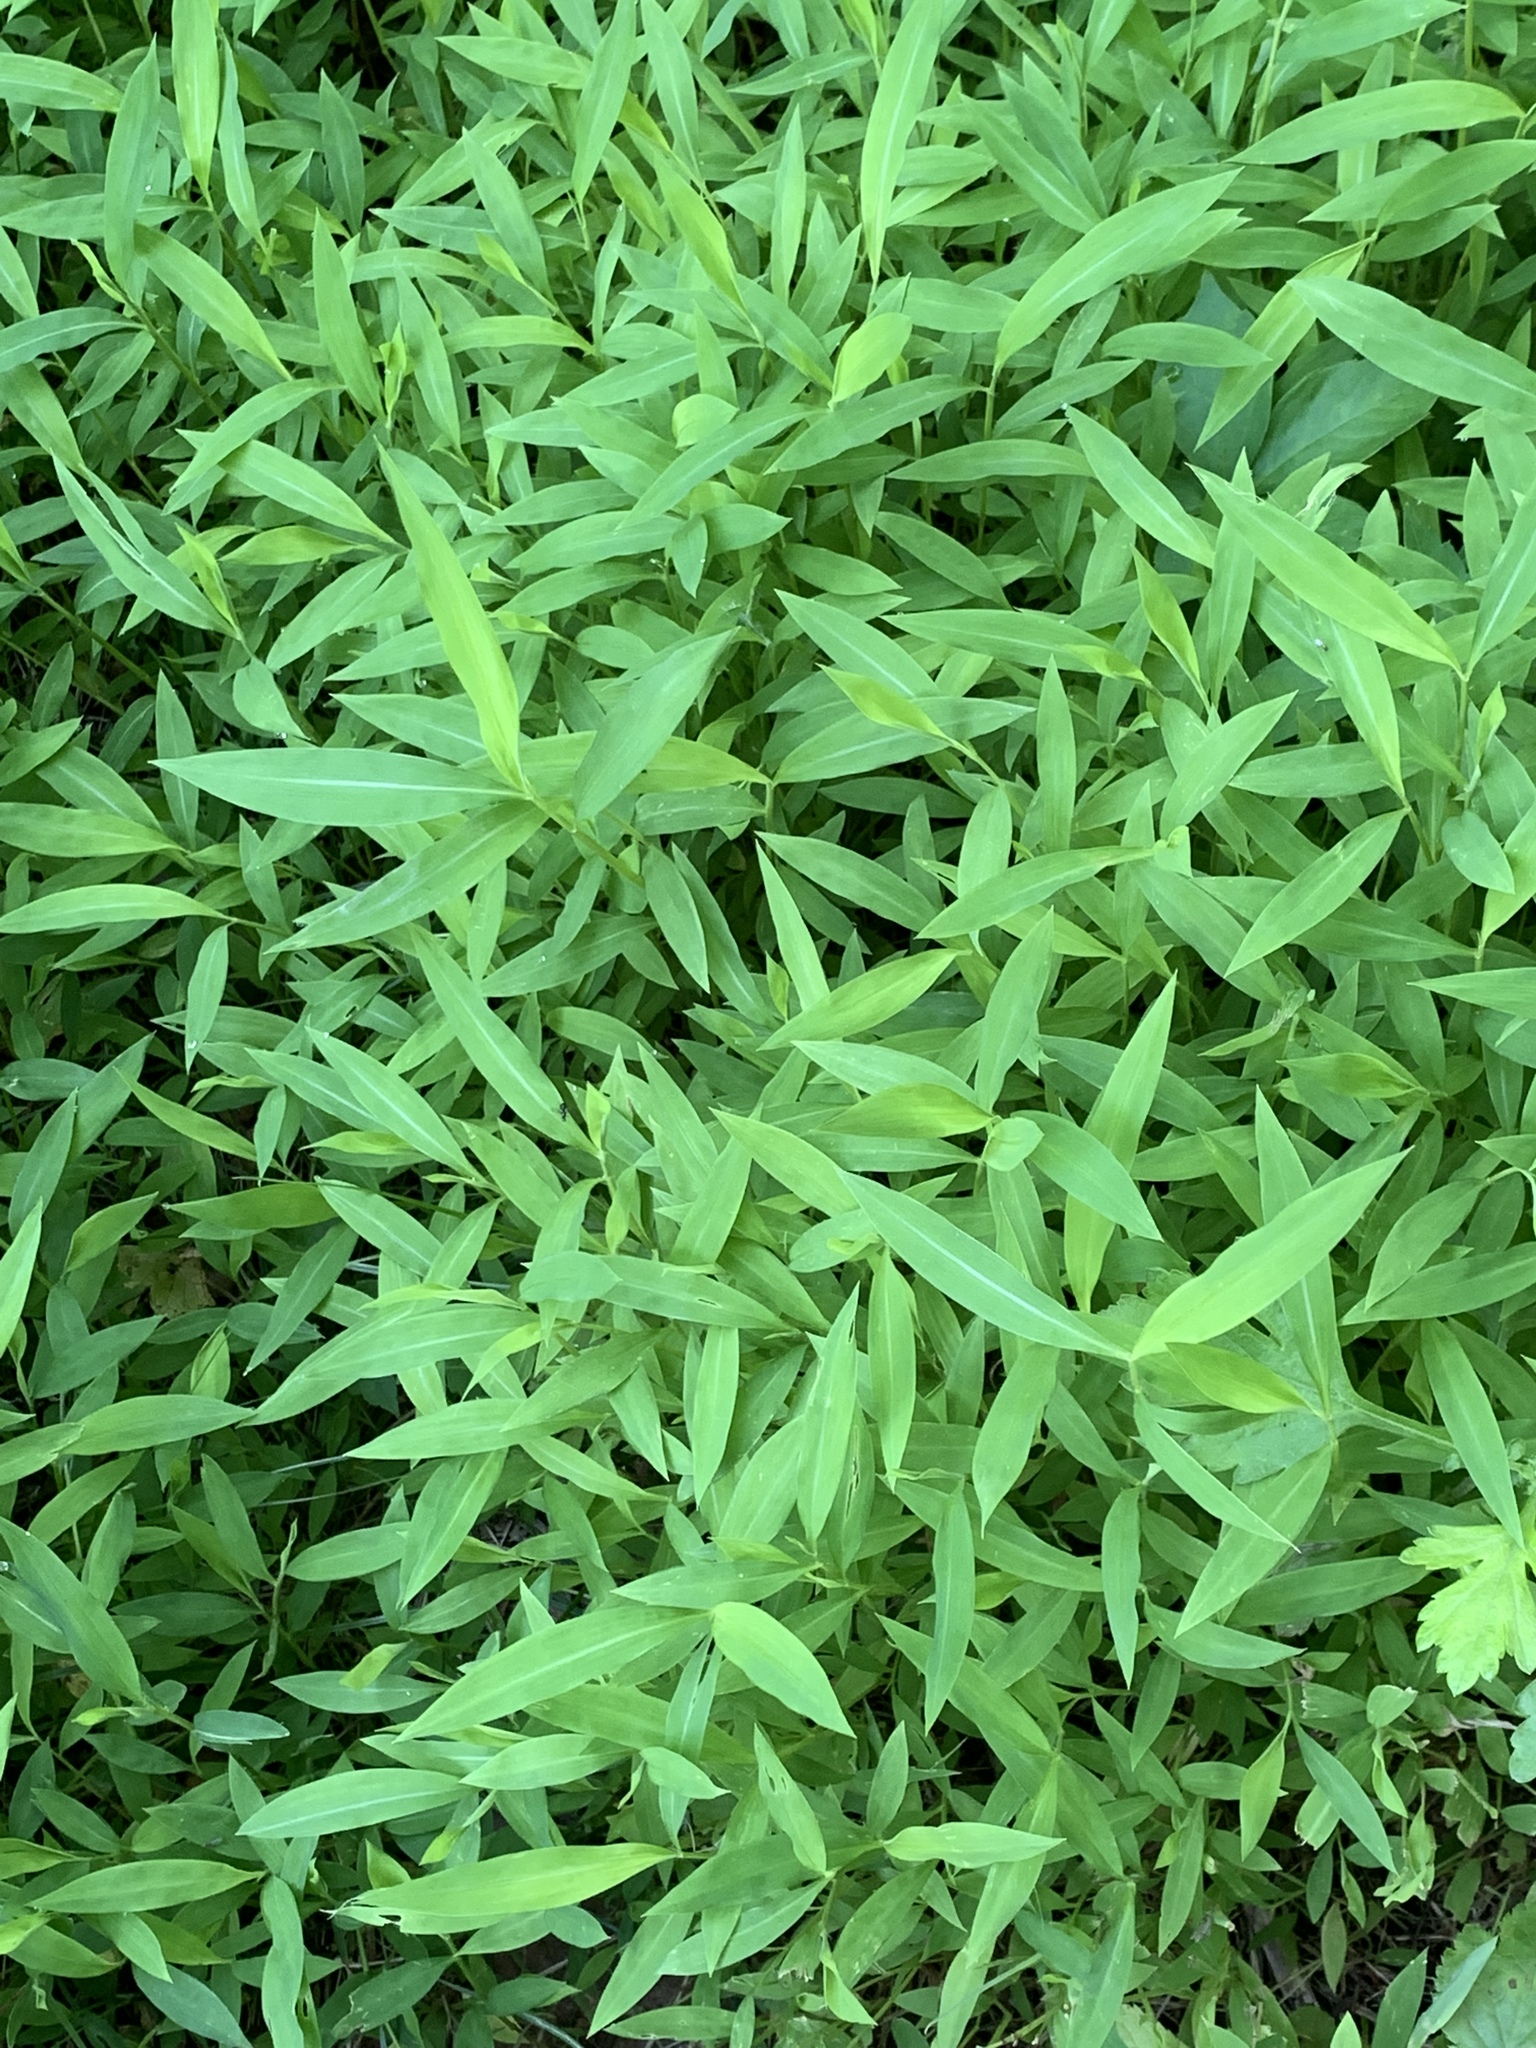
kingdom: Plantae
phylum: Tracheophyta
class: Liliopsida
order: Poales
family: Poaceae
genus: Microstegium
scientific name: Microstegium vimineum
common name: Japanese stiltgrass
